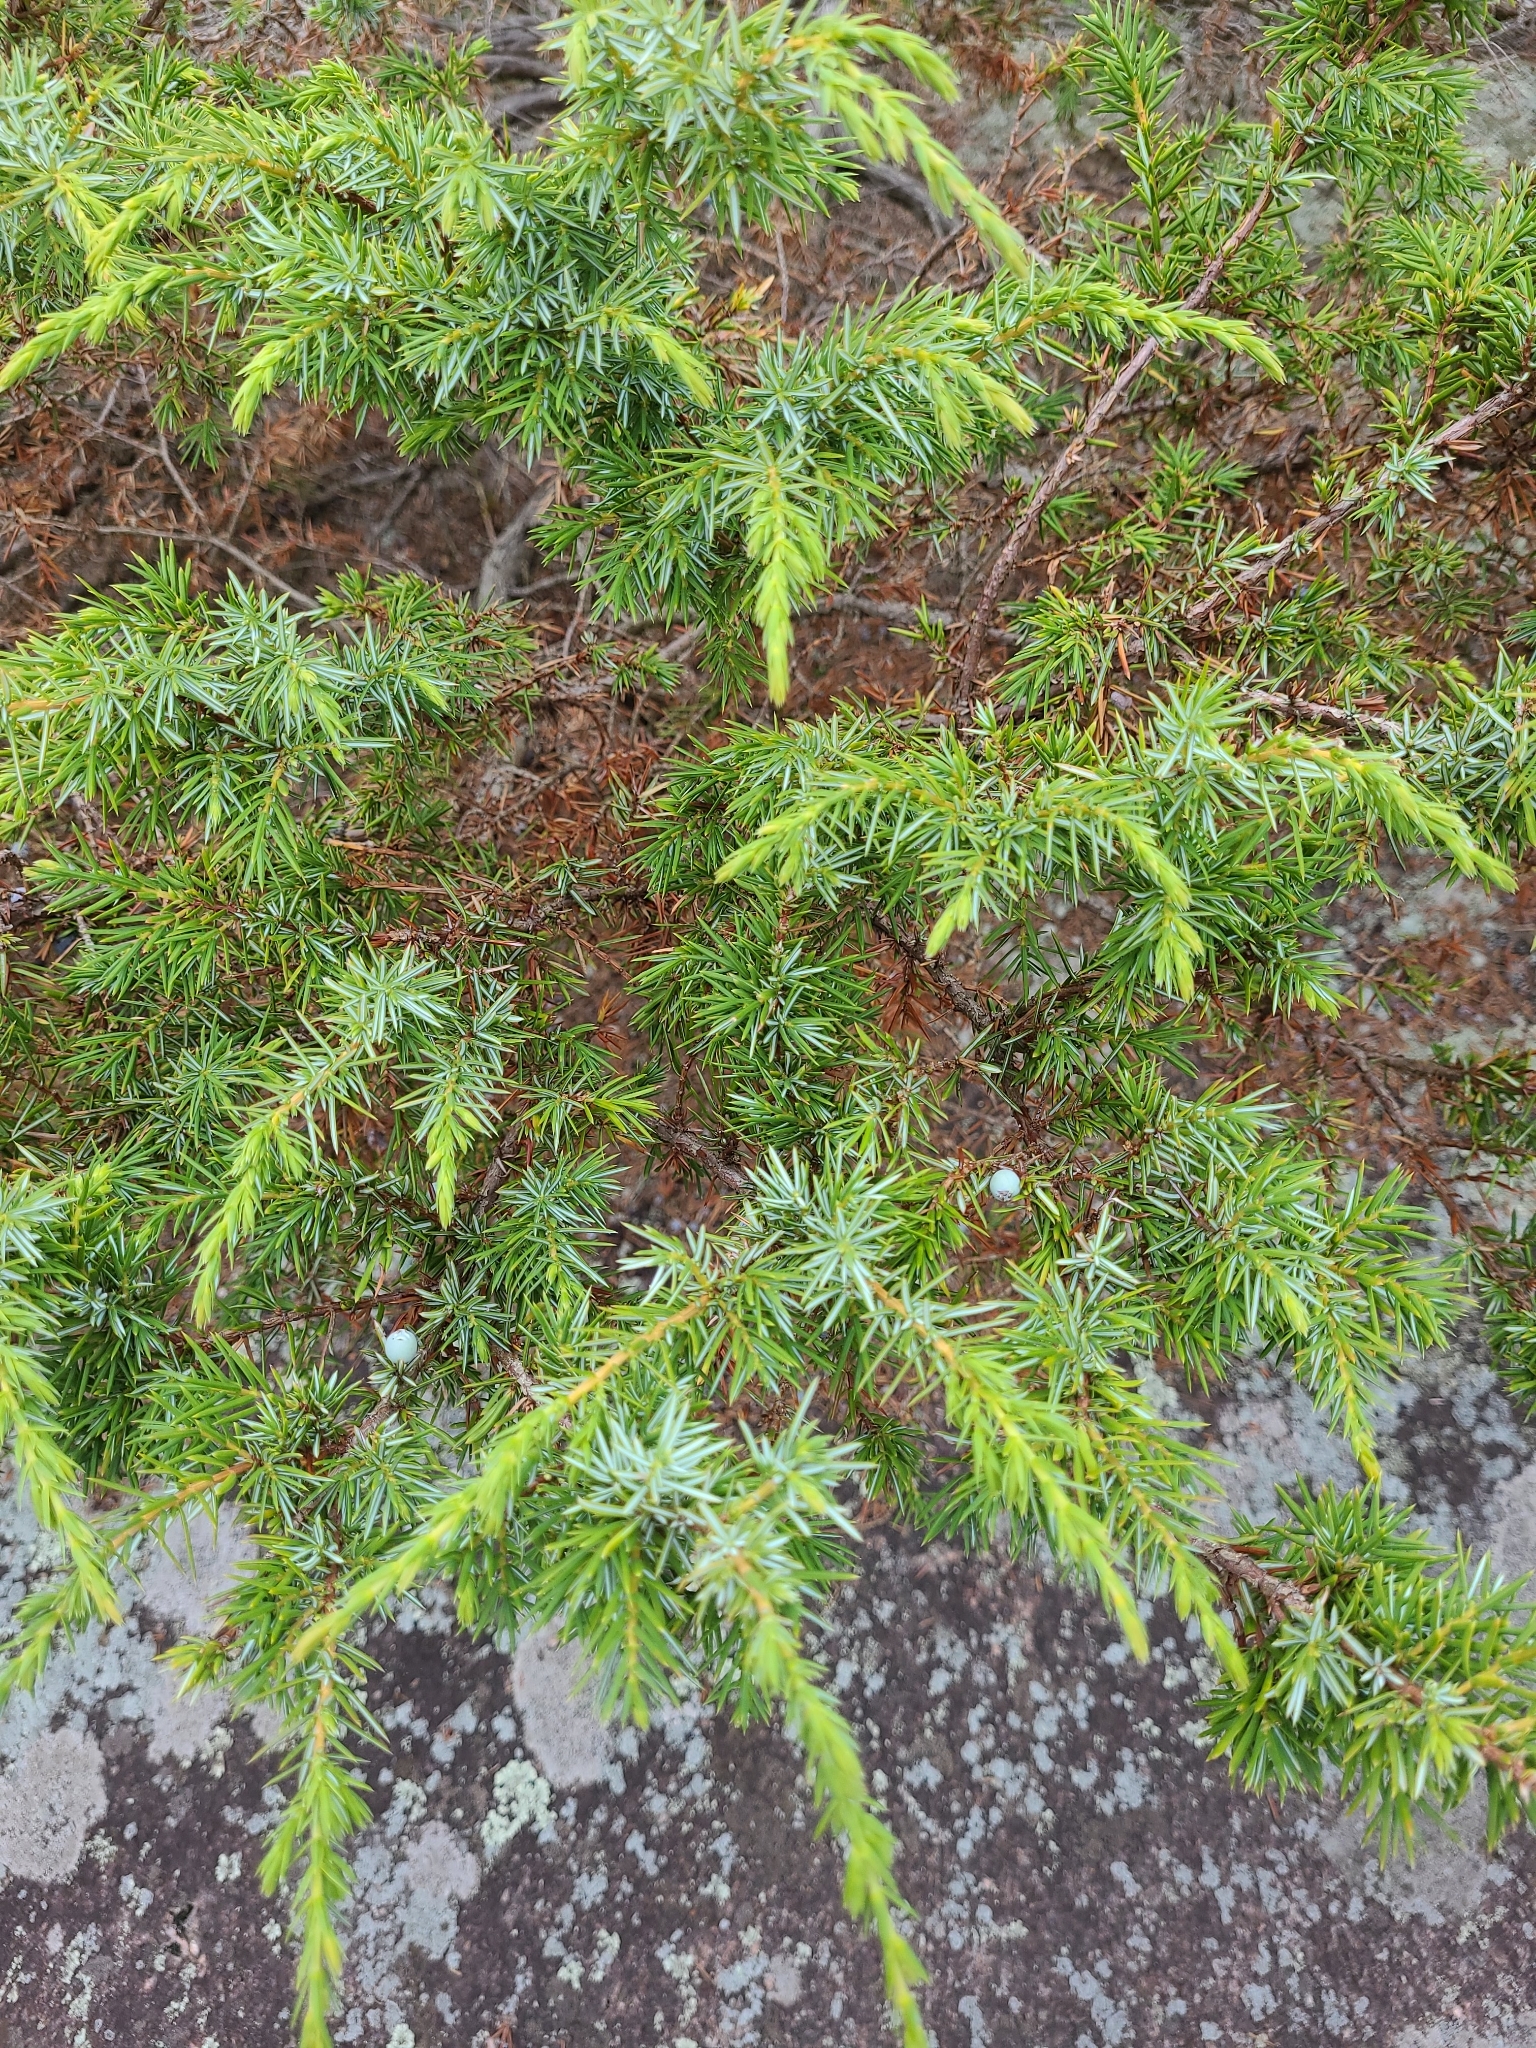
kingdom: Plantae
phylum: Tracheophyta
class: Pinopsida
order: Pinales
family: Cupressaceae
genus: Juniperus
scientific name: Juniperus communis
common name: Common juniper
